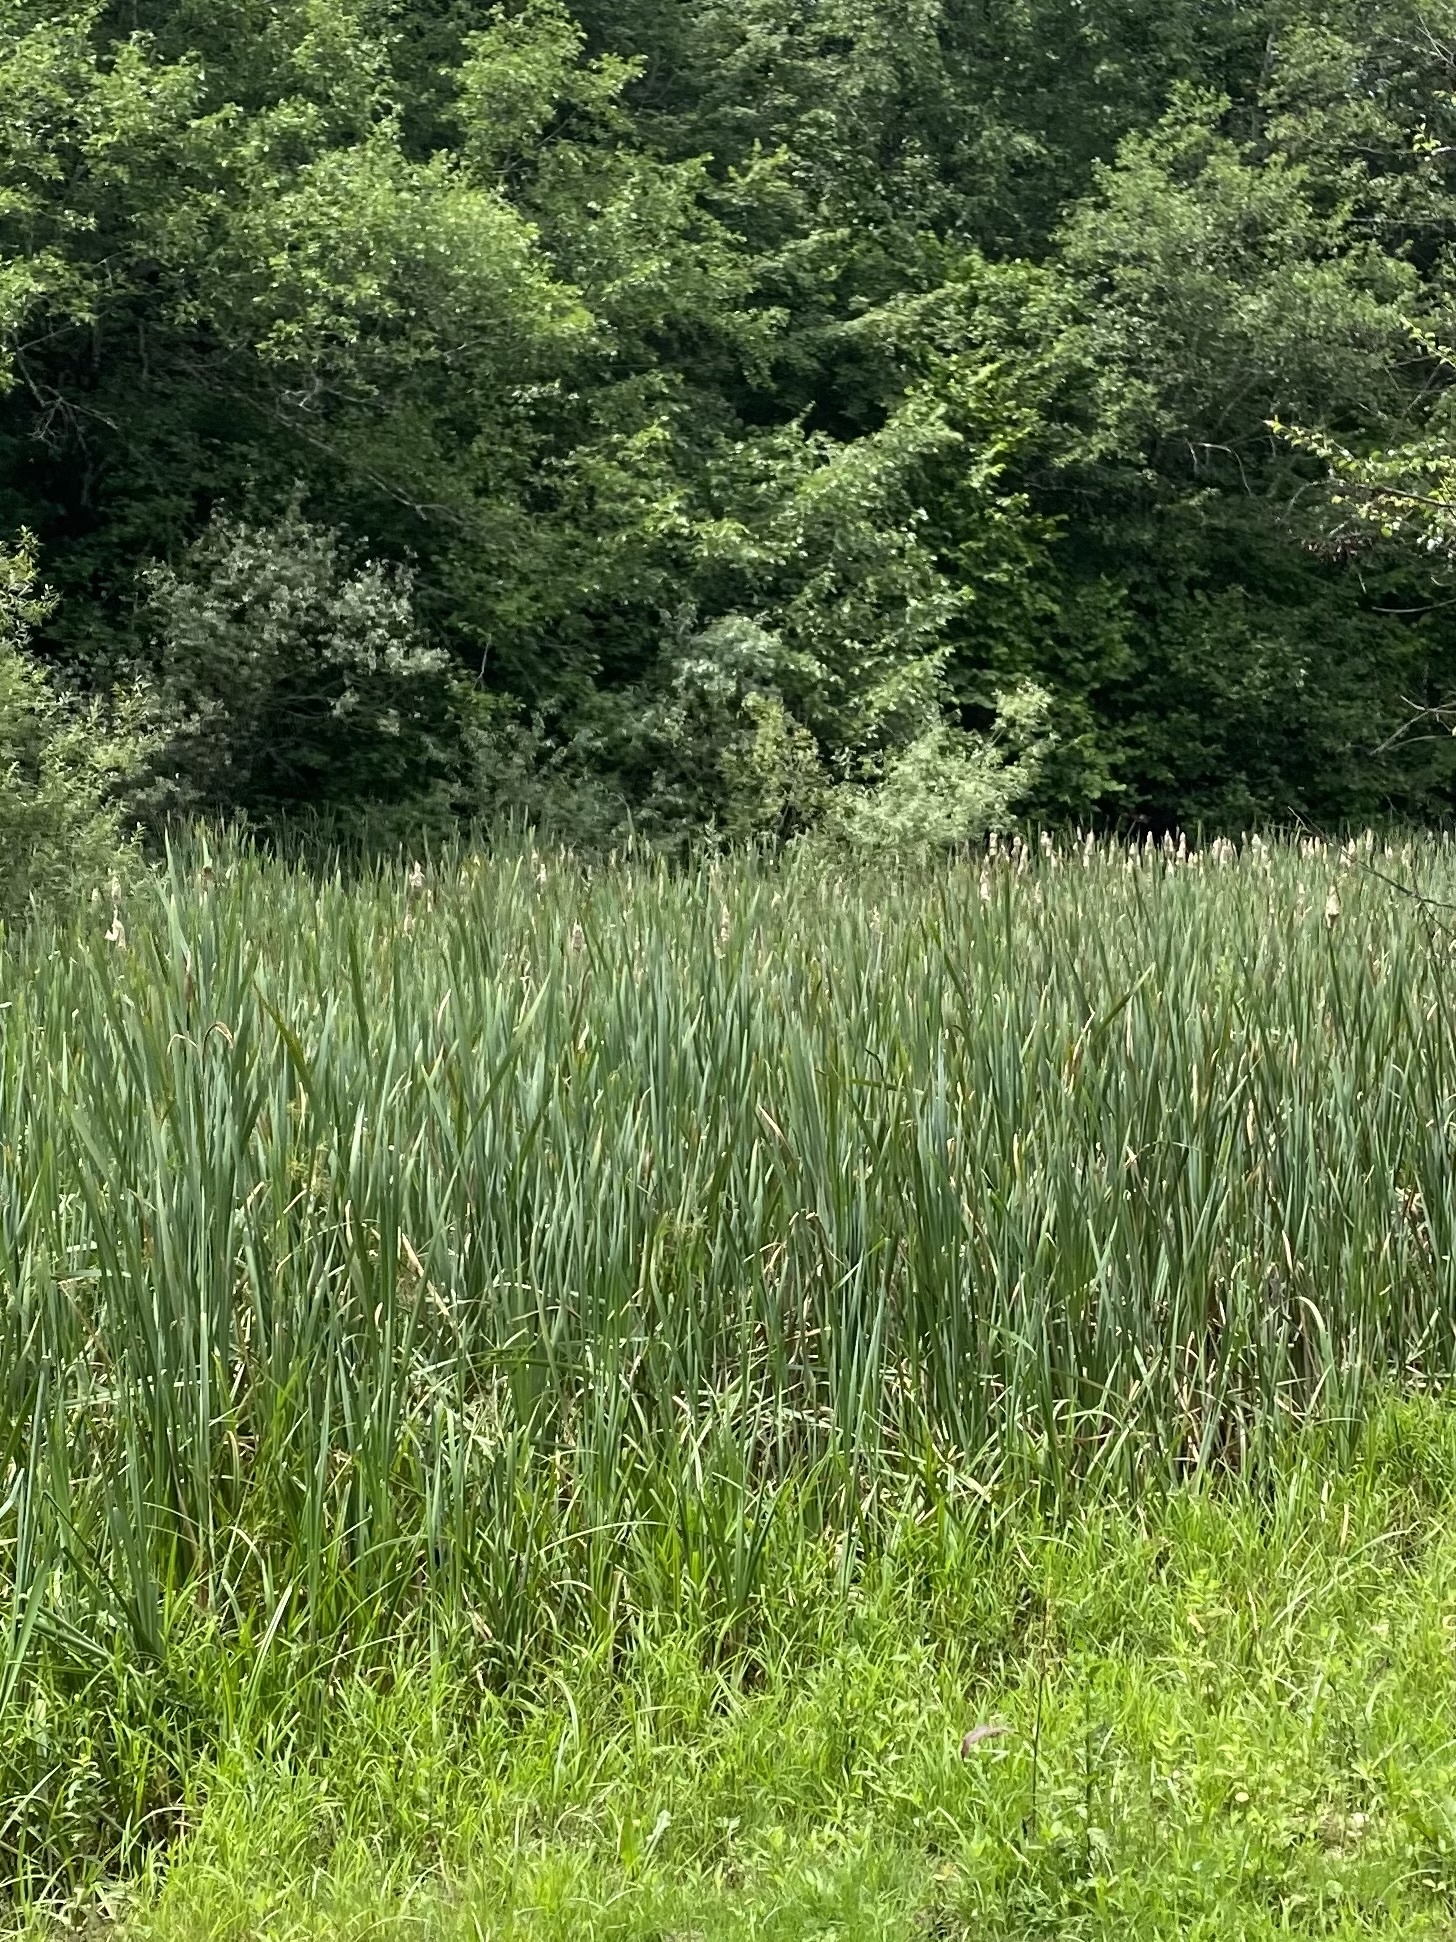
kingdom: Plantae
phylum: Tracheophyta
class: Liliopsida
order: Poales
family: Typhaceae
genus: Typha
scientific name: Typha latifolia
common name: Broadleaf cattail
